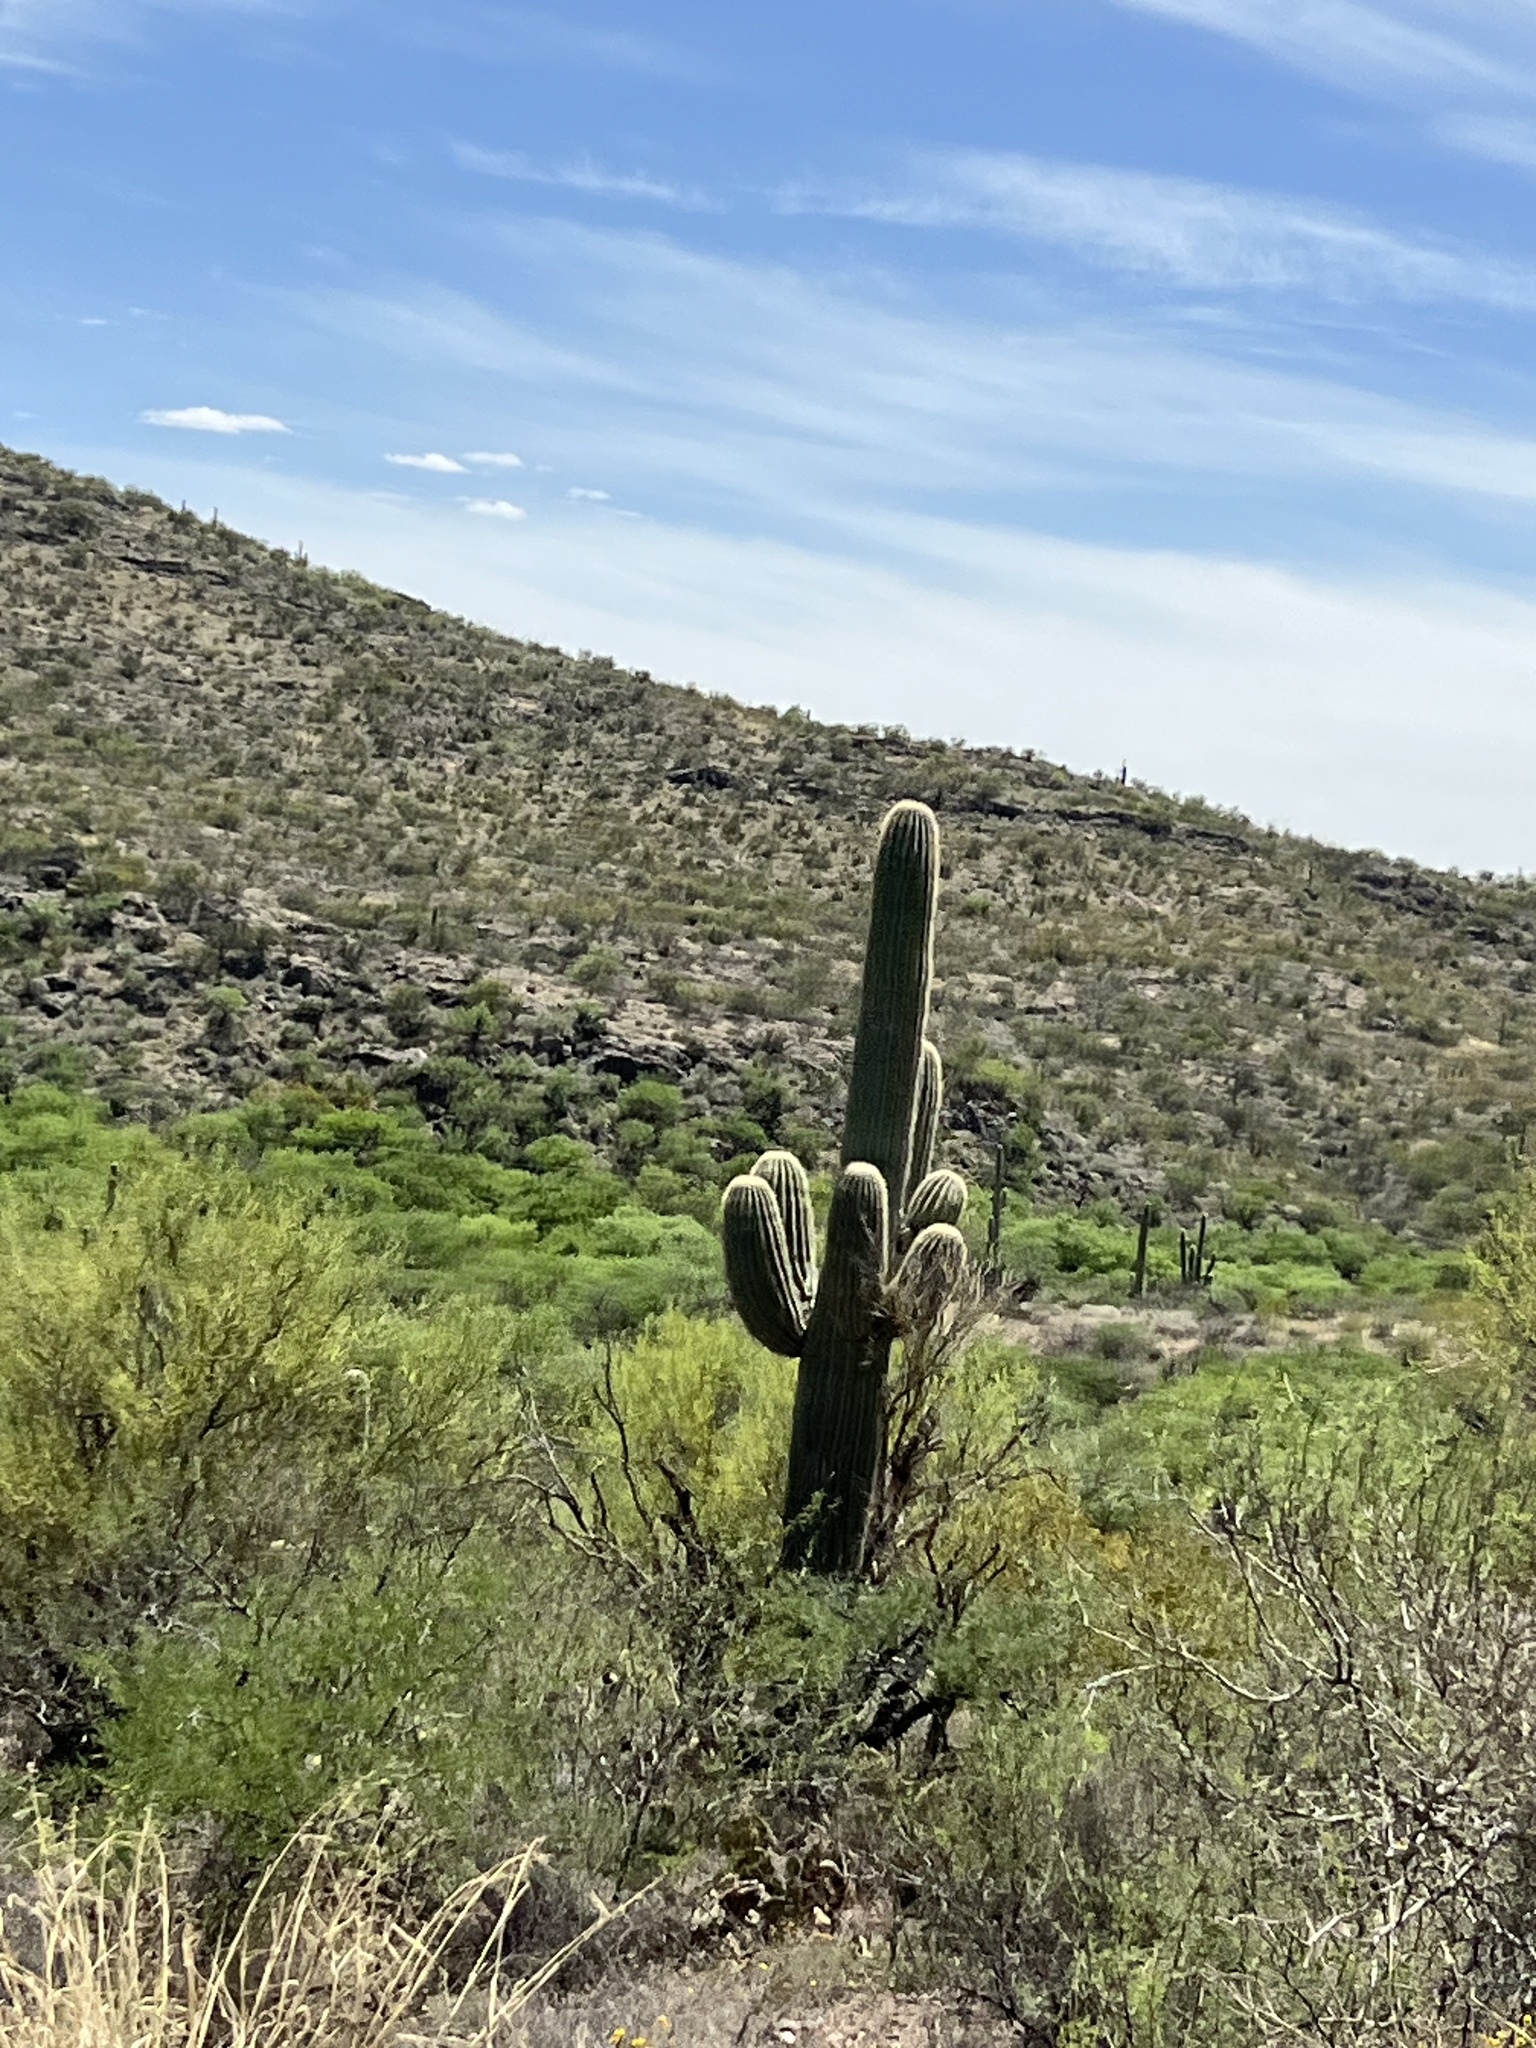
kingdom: Plantae
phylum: Tracheophyta
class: Magnoliopsida
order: Caryophyllales
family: Cactaceae
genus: Carnegiea
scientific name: Carnegiea gigantea
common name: Saguaro
